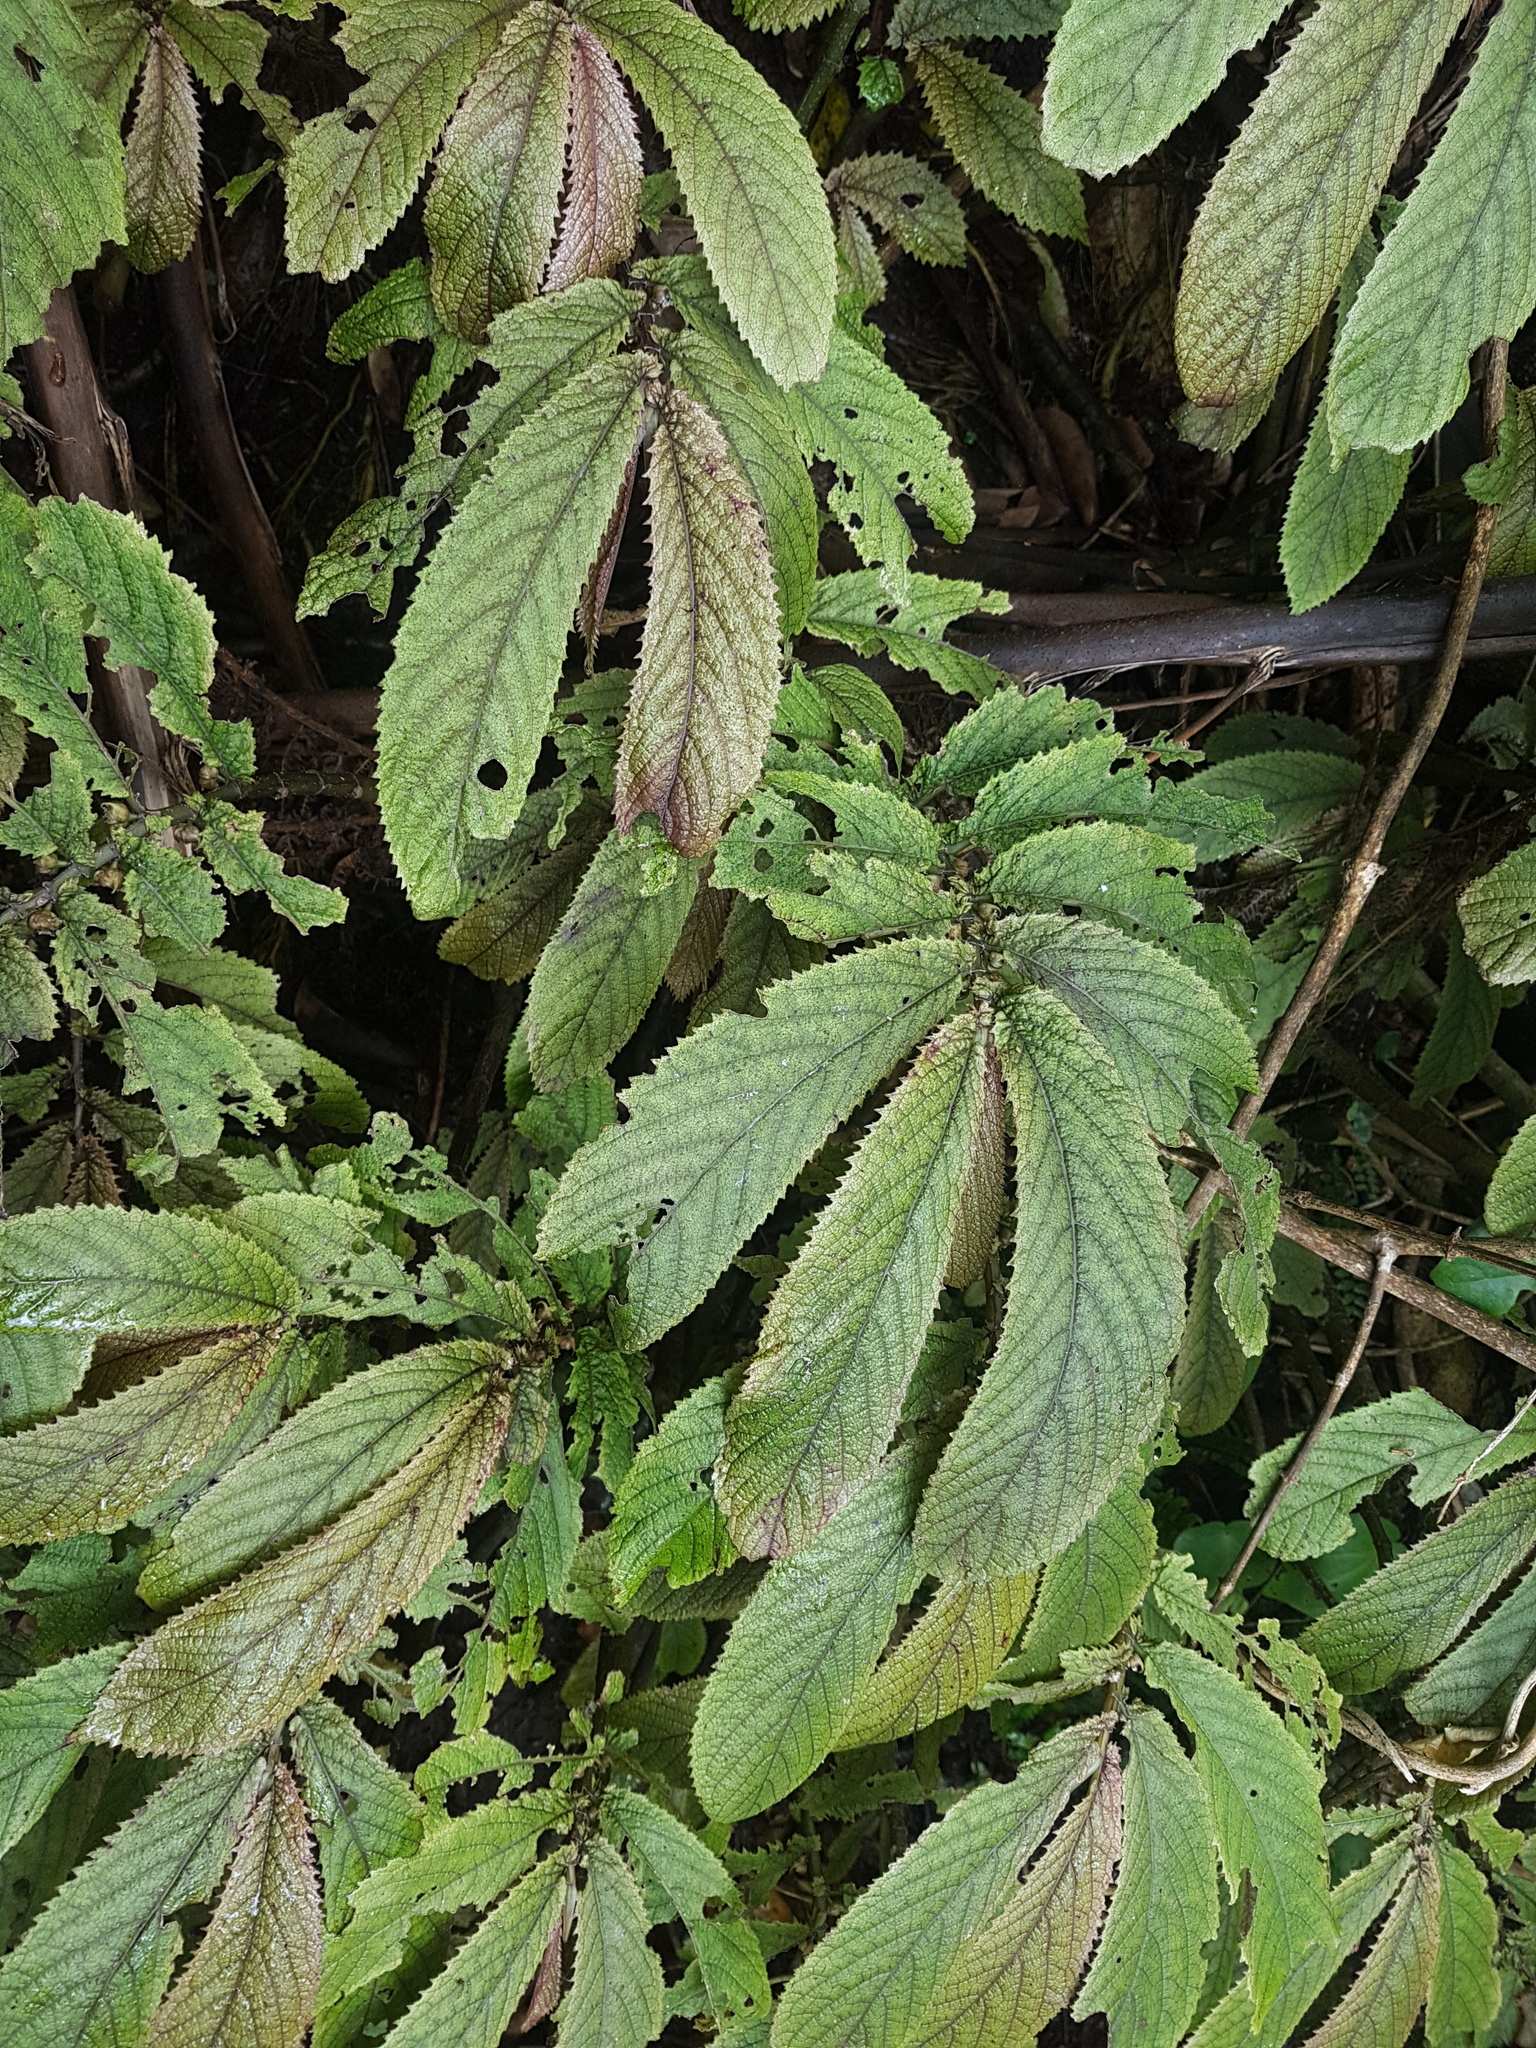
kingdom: Plantae
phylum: Tracheophyta
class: Magnoliopsida
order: Rosales
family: Urticaceae
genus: Elatostema
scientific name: Elatostema rugosum
